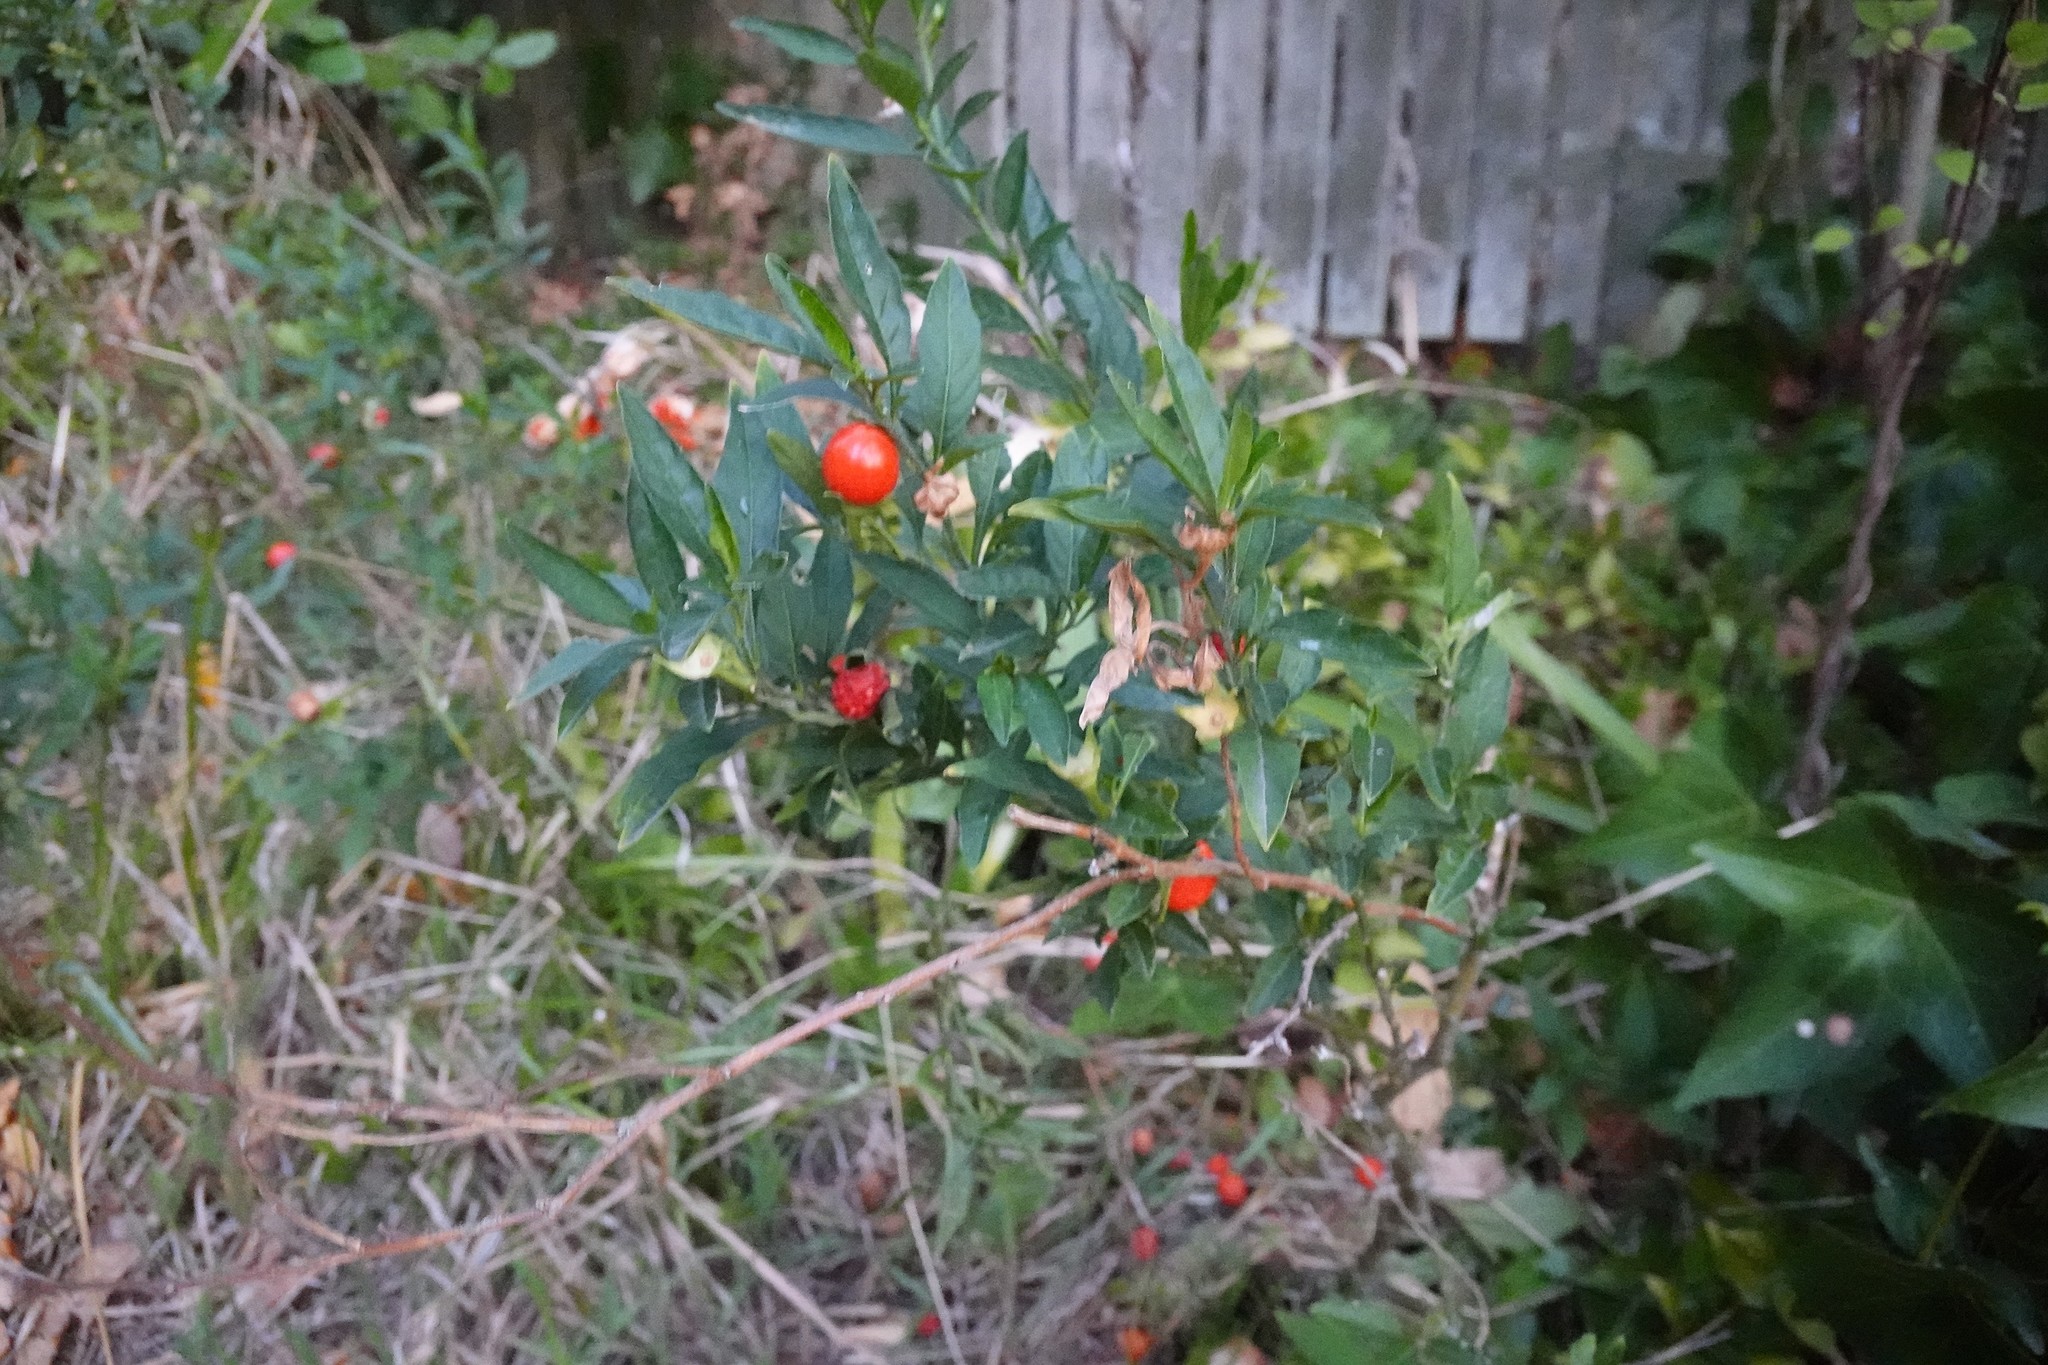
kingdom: Plantae
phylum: Tracheophyta
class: Magnoliopsida
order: Solanales
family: Solanaceae
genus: Solanum
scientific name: Solanum pseudocapsicum
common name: Jerusalem cherry
